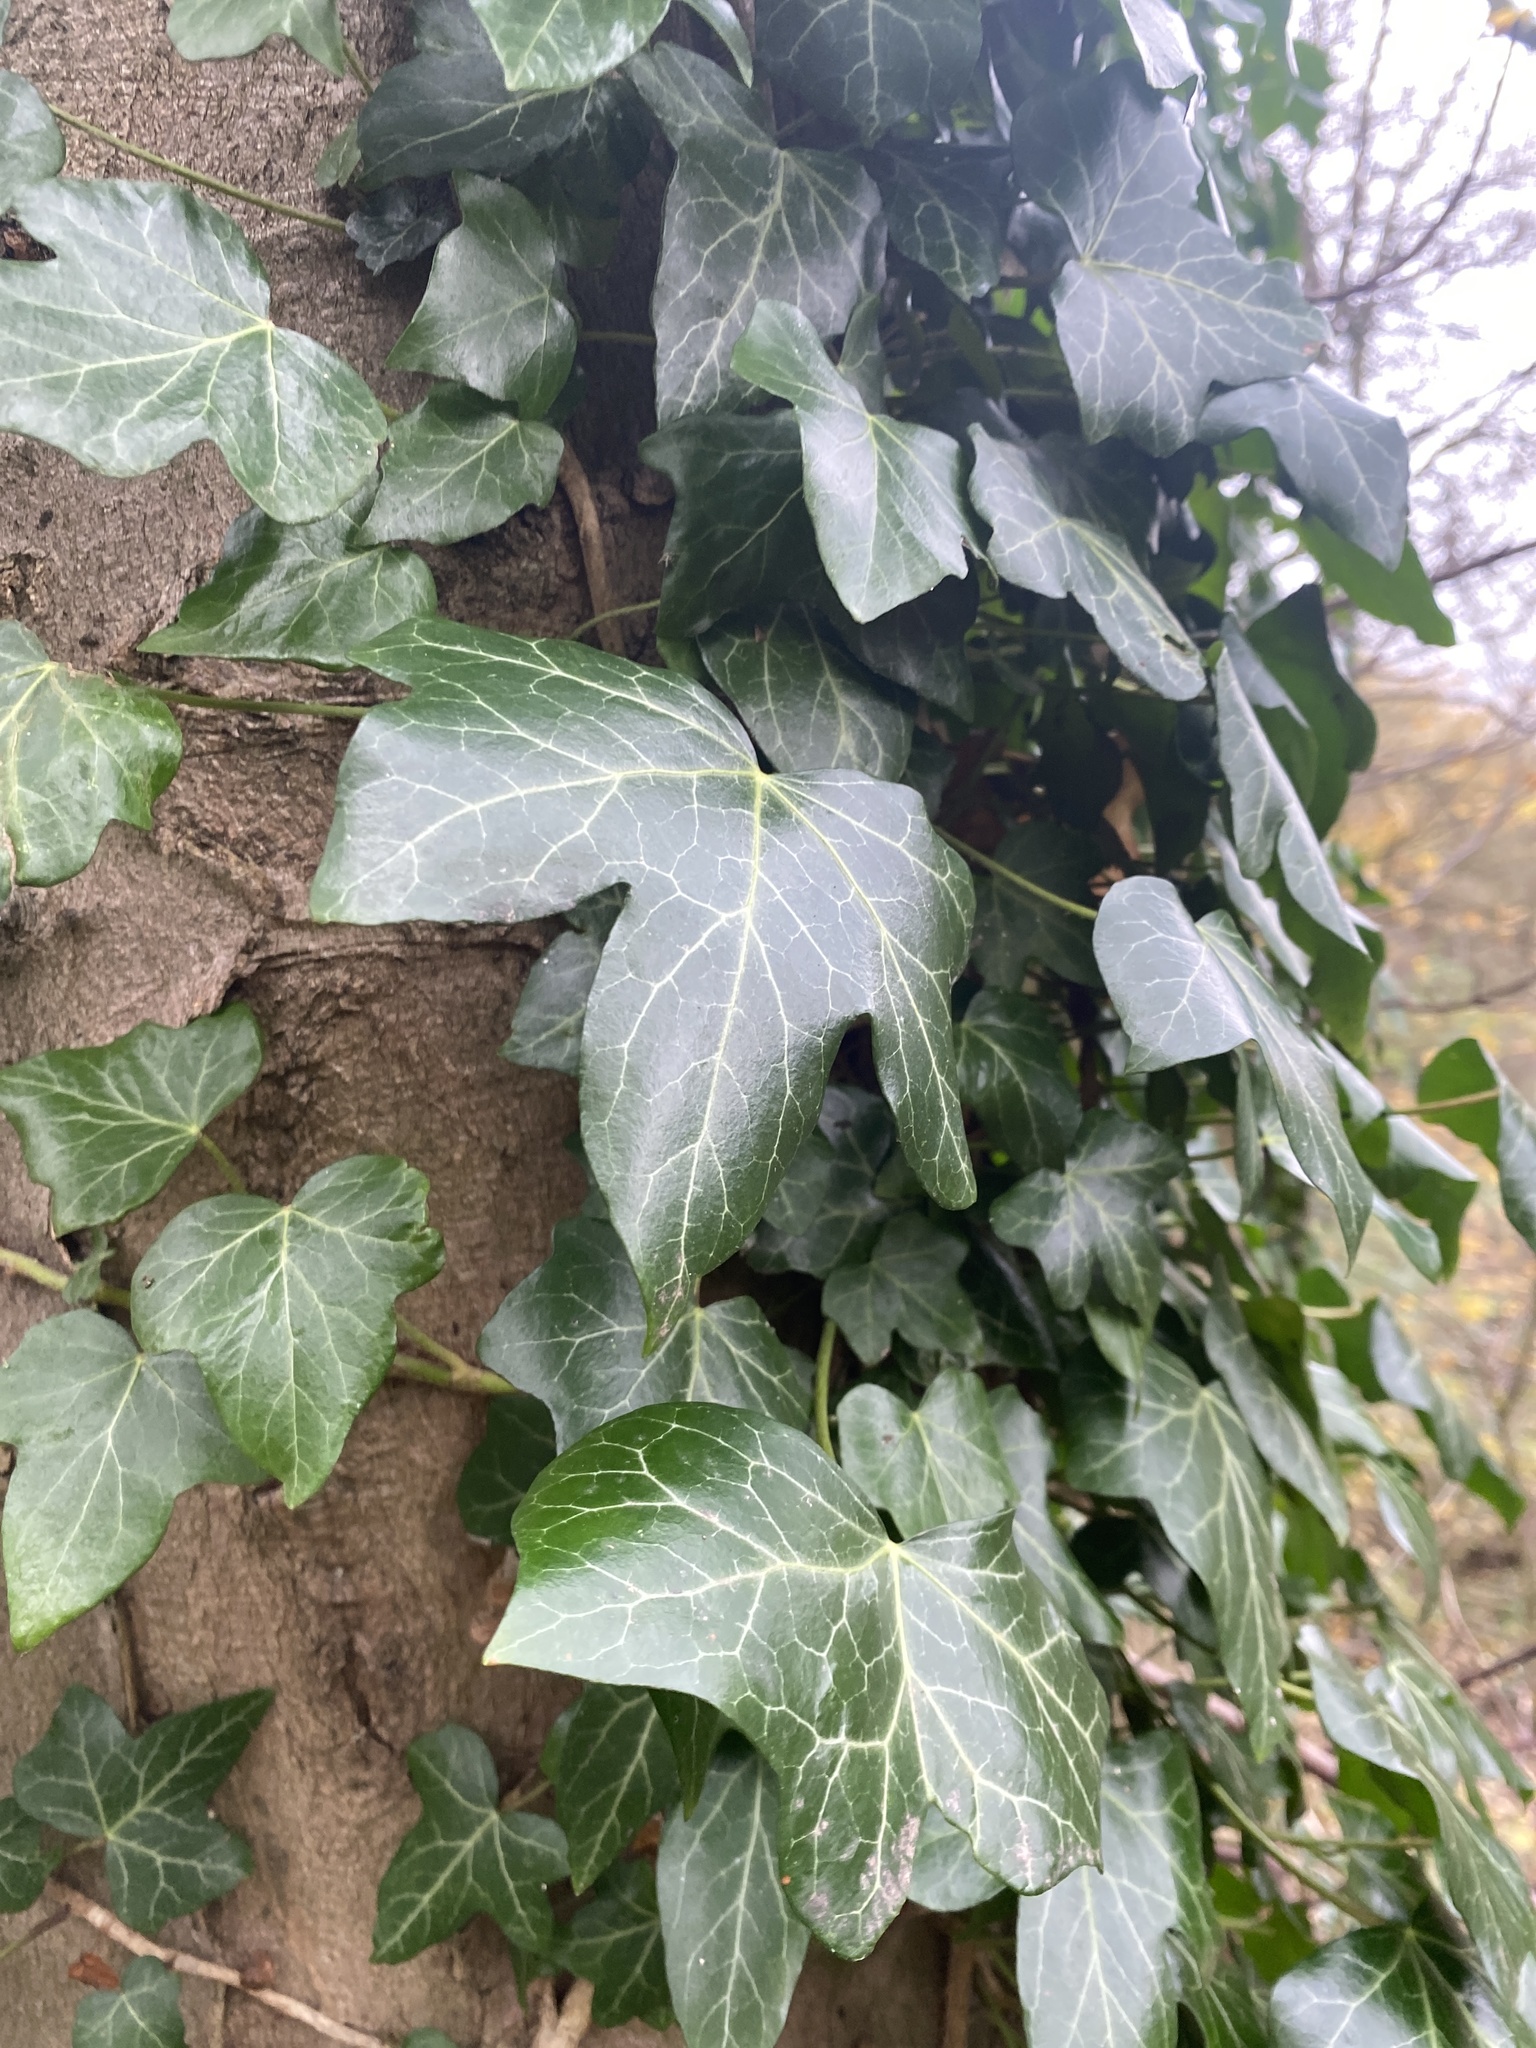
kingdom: Plantae
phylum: Tracheophyta
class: Magnoliopsida
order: Apiales
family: Araliaceae
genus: Hedera
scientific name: Hedera helix
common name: Ivy
